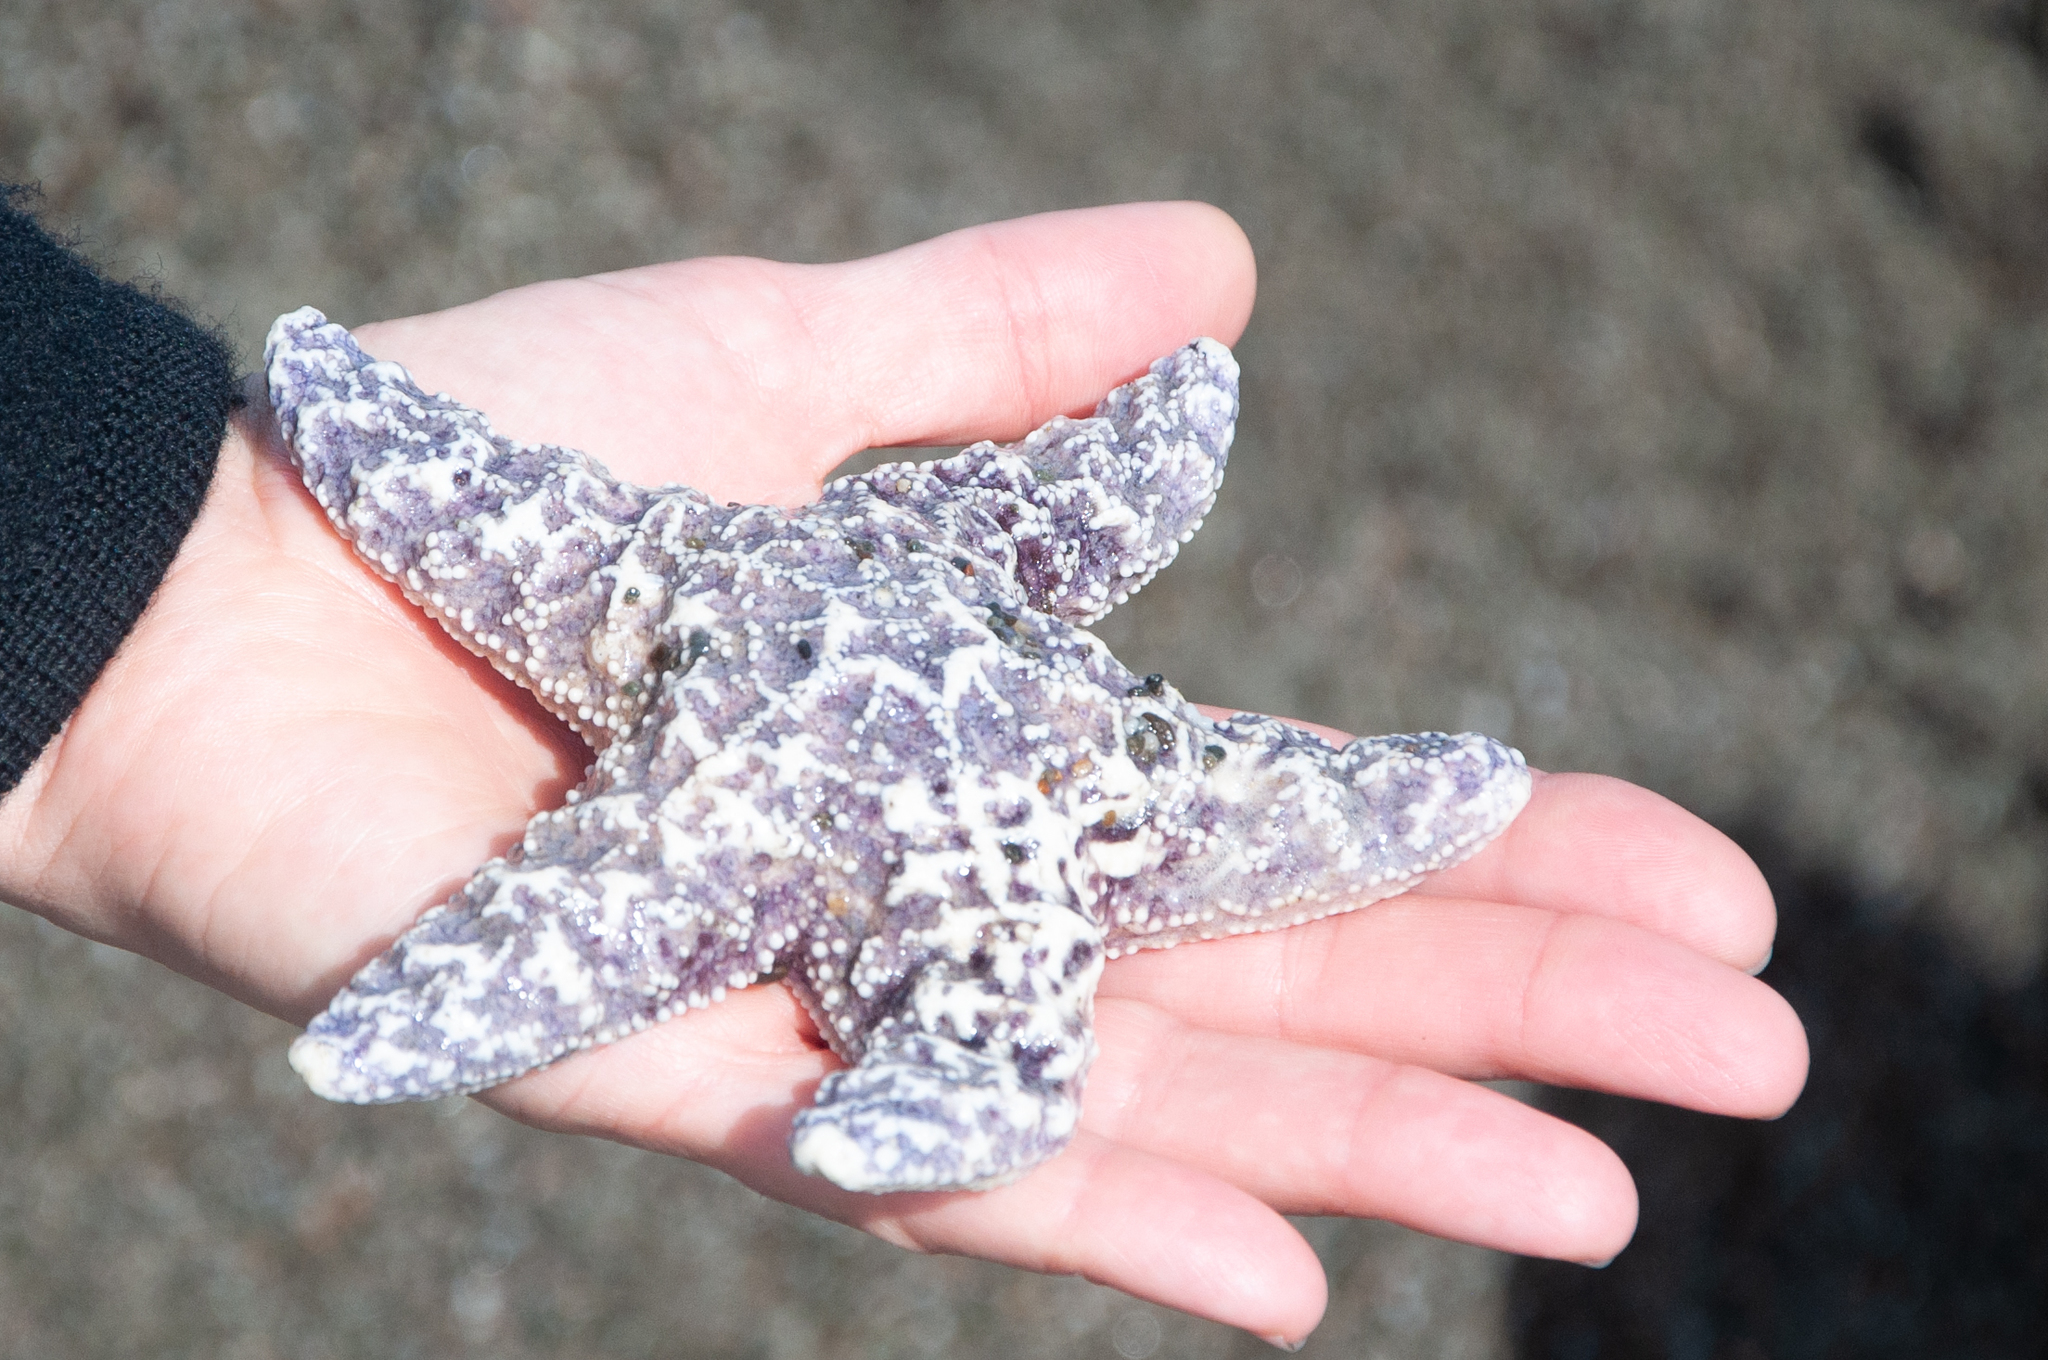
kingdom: Animalia
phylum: Echinodermata
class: Asteroidea
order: Forcipulatida
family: Asteriidae
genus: Pisaster
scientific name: Pisaster ochraceus
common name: Ochre stars
